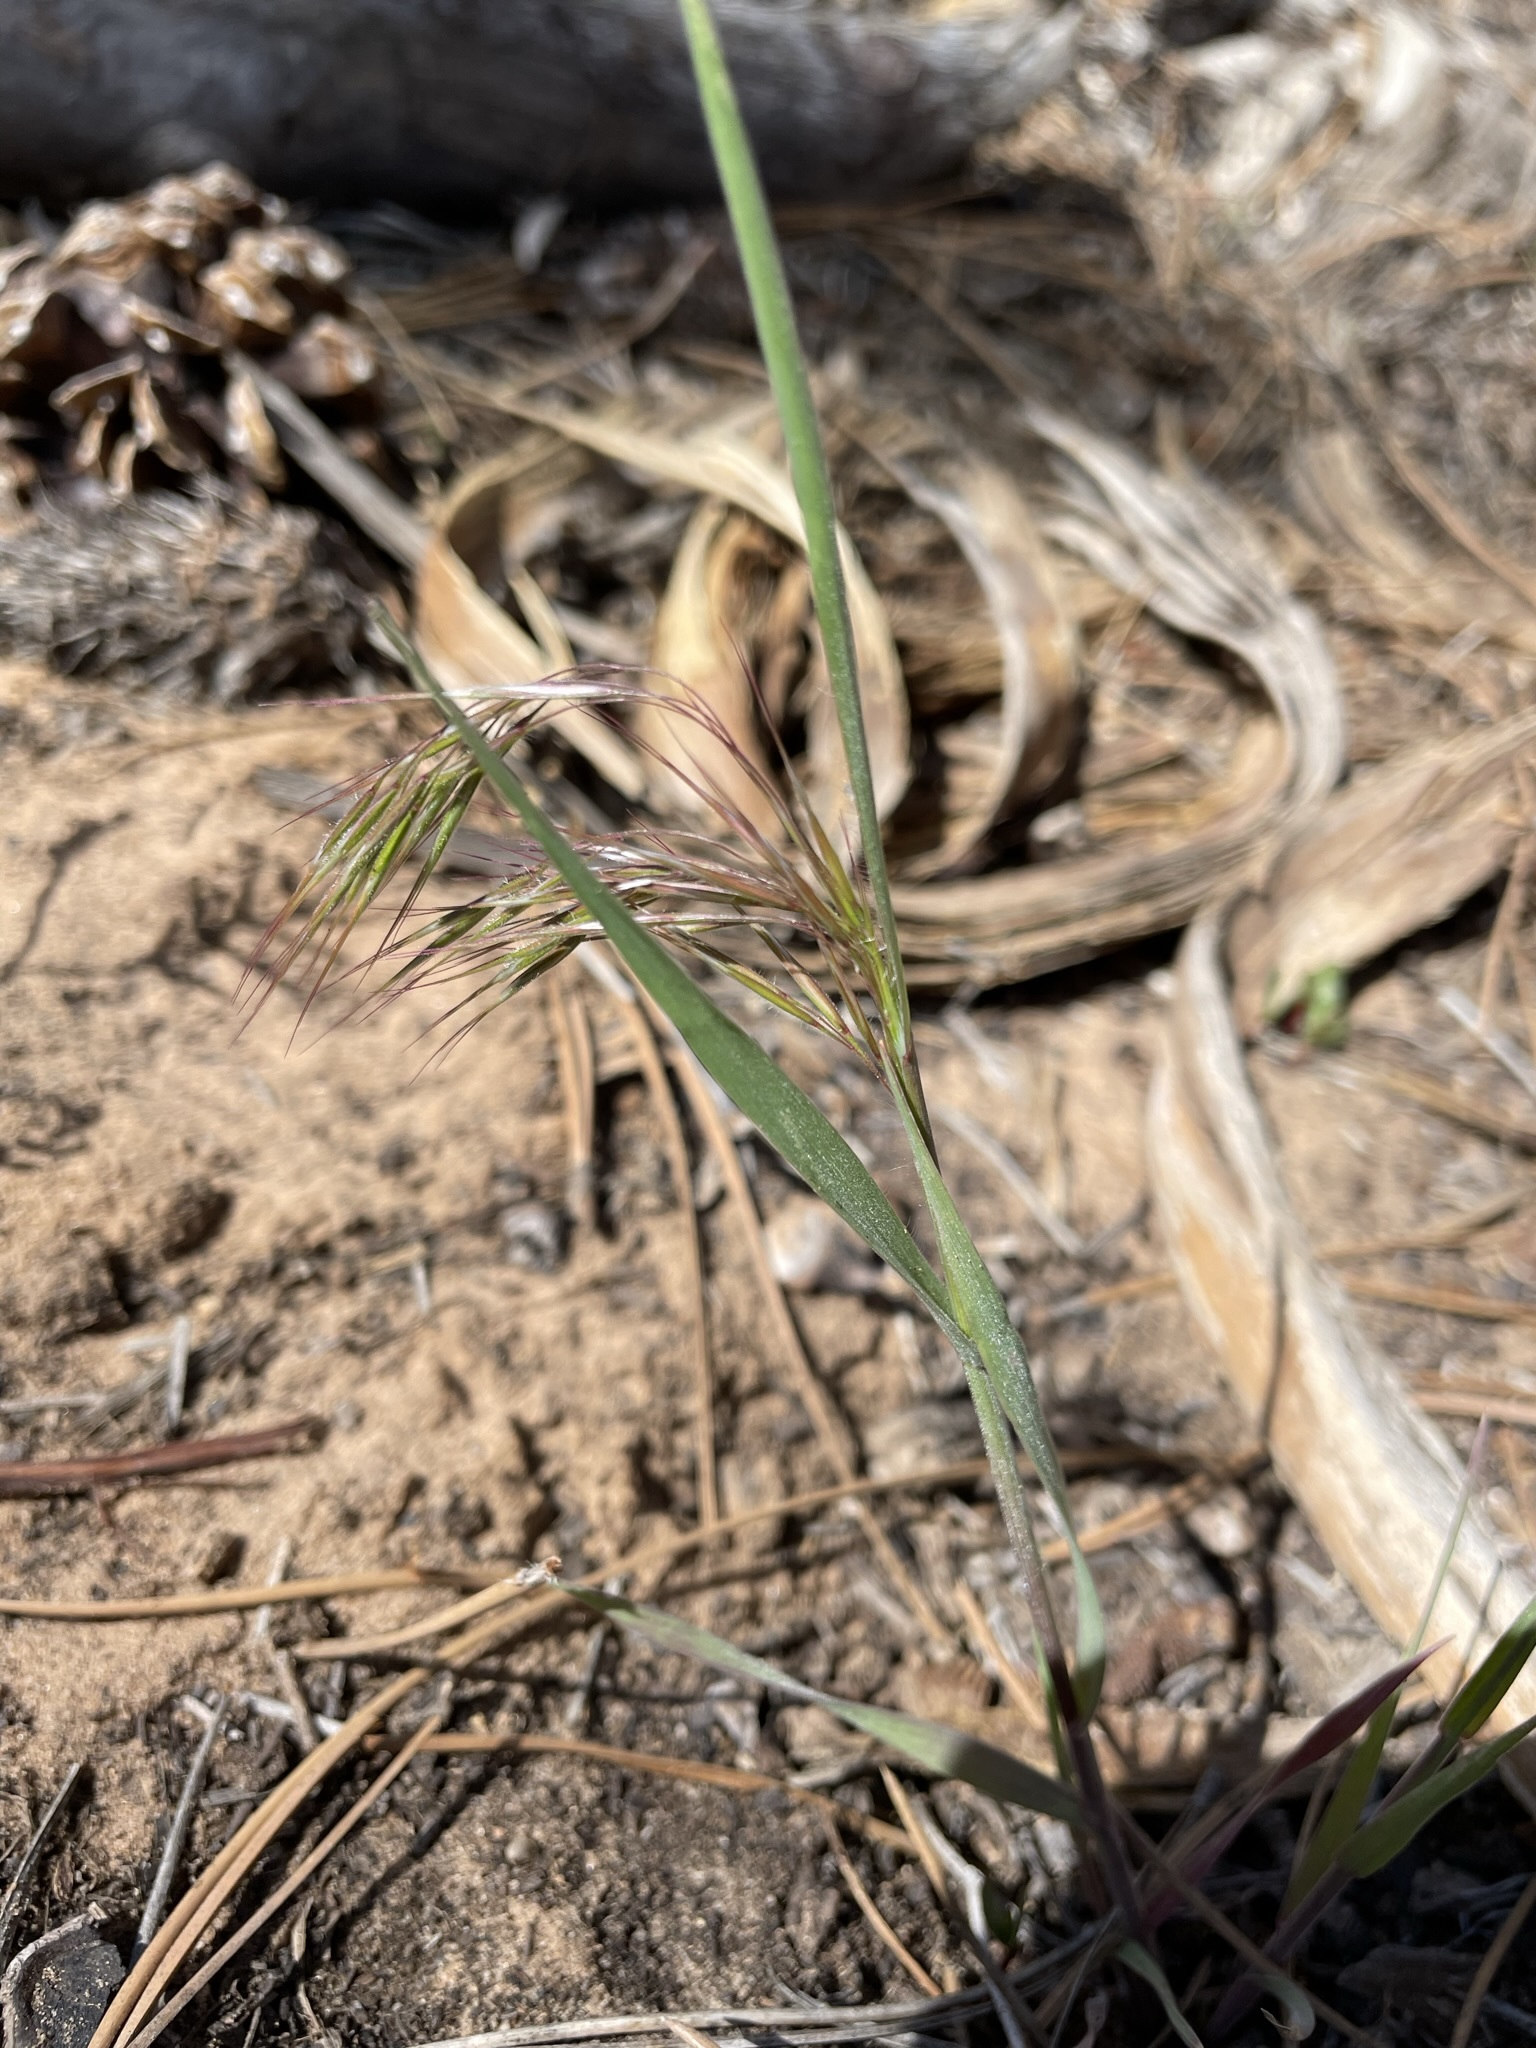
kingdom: Plantae
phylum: Tracheophyta
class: Liliopsida
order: Poales
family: Poaceae
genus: Bromus
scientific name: Bromus tectorum
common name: Cheatgrass
